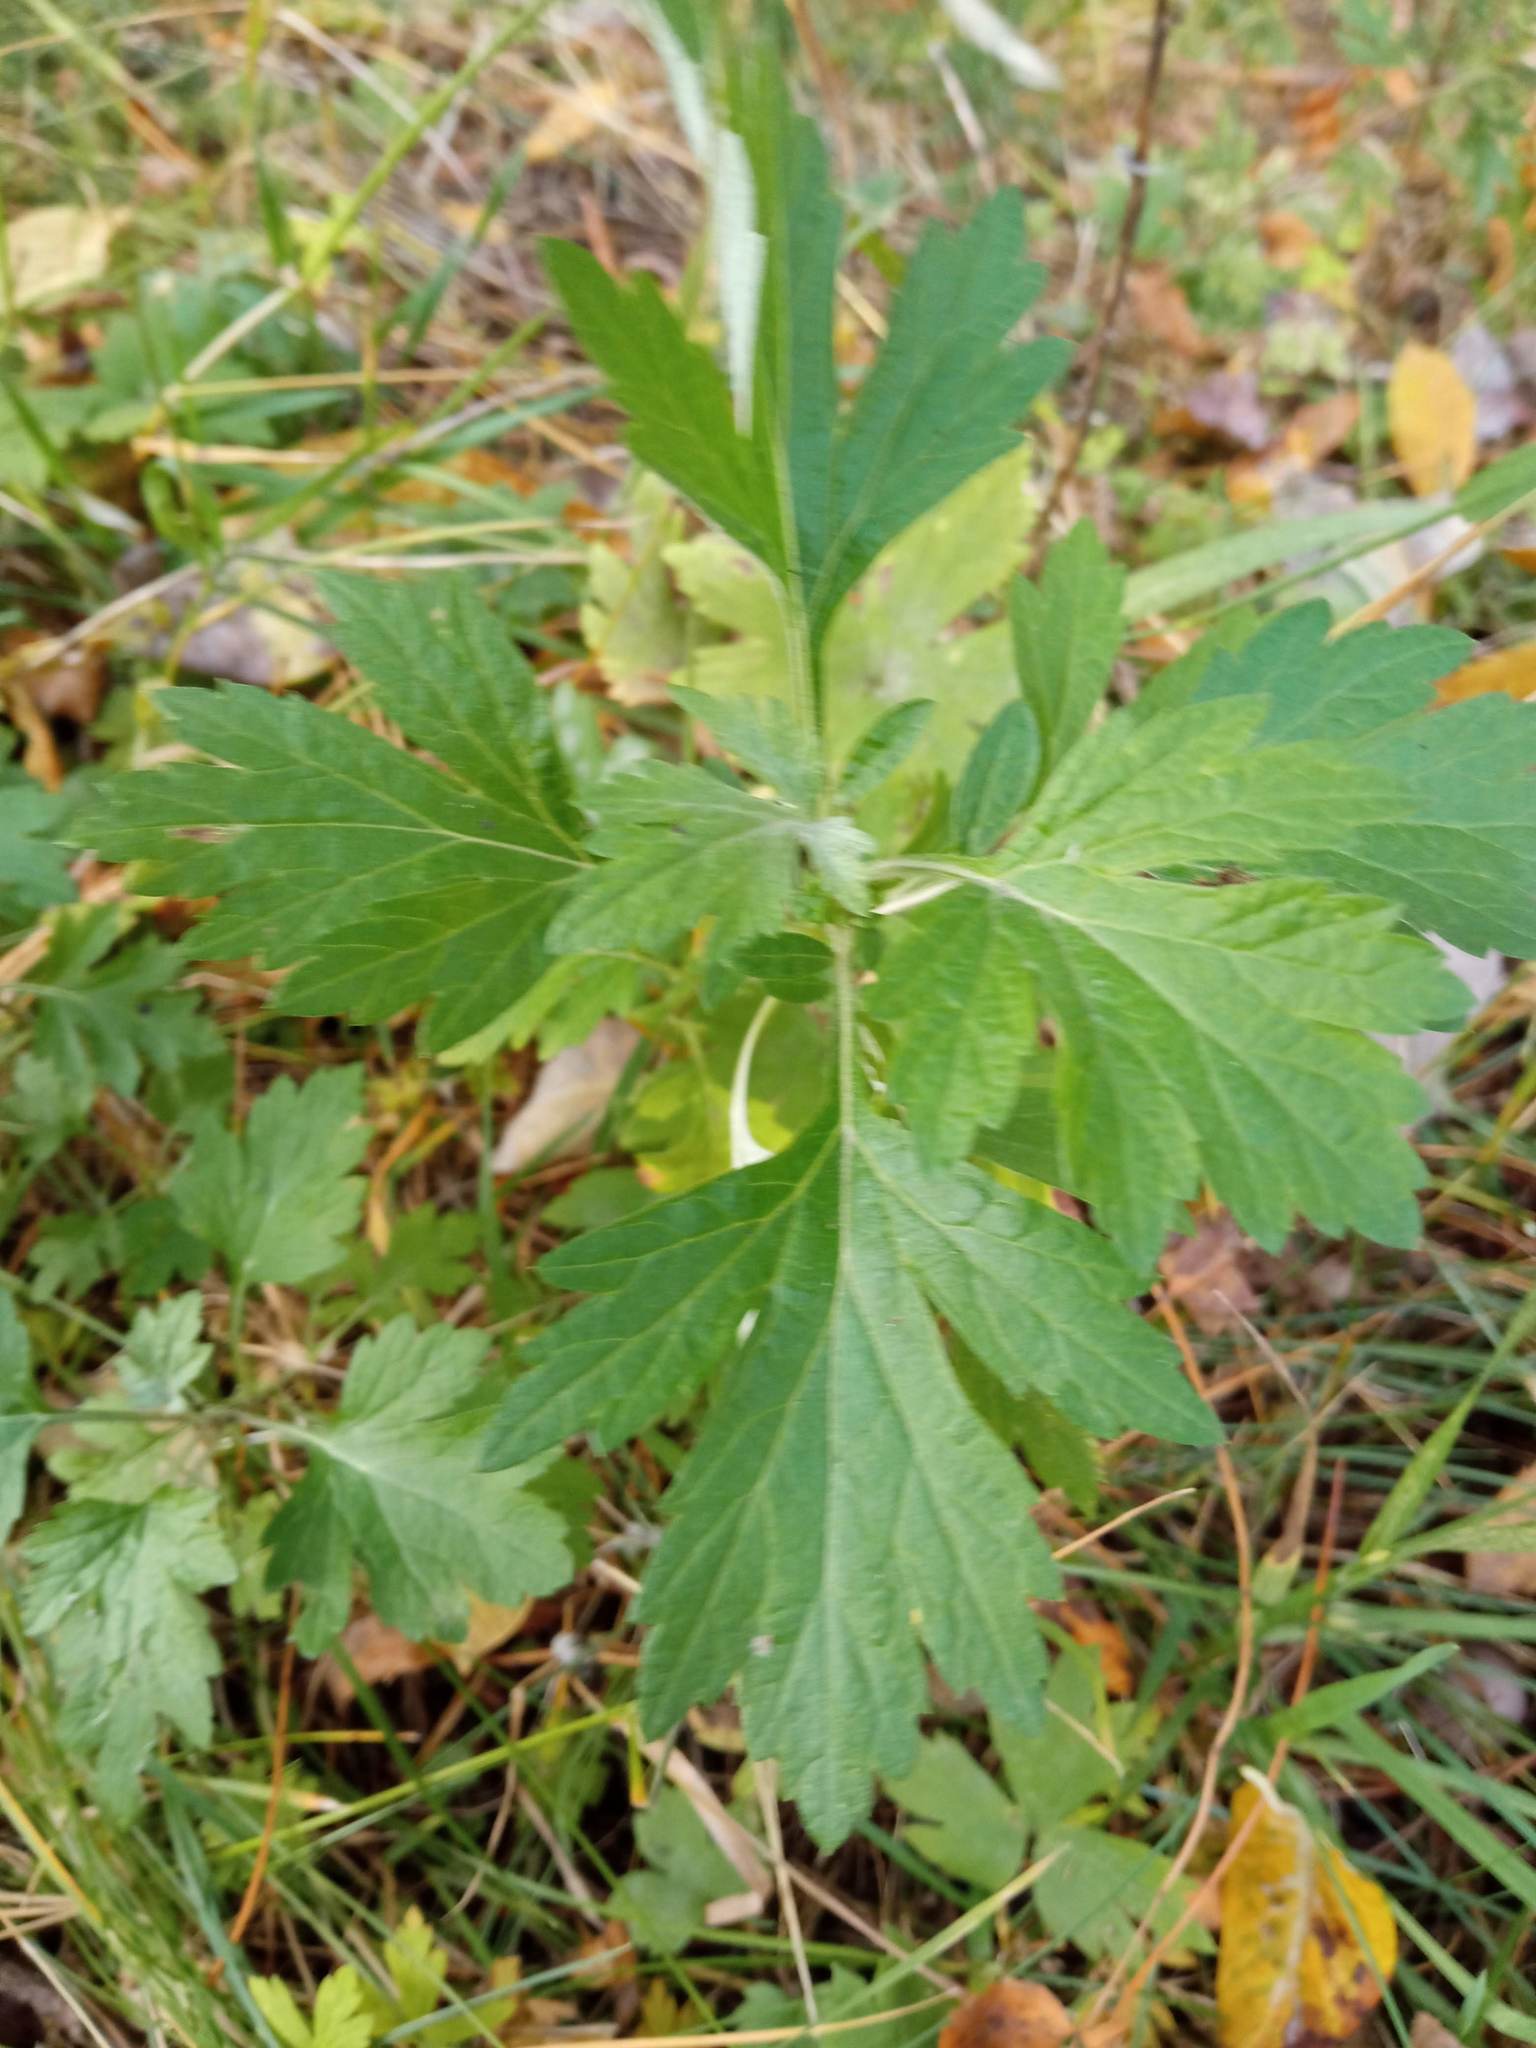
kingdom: Plantae
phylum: Tracheophyta
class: Magnoliopsida
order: Asterales
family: Asteraceae
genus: Artemisia
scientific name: Artemisia vulgaris
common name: Mugwort
